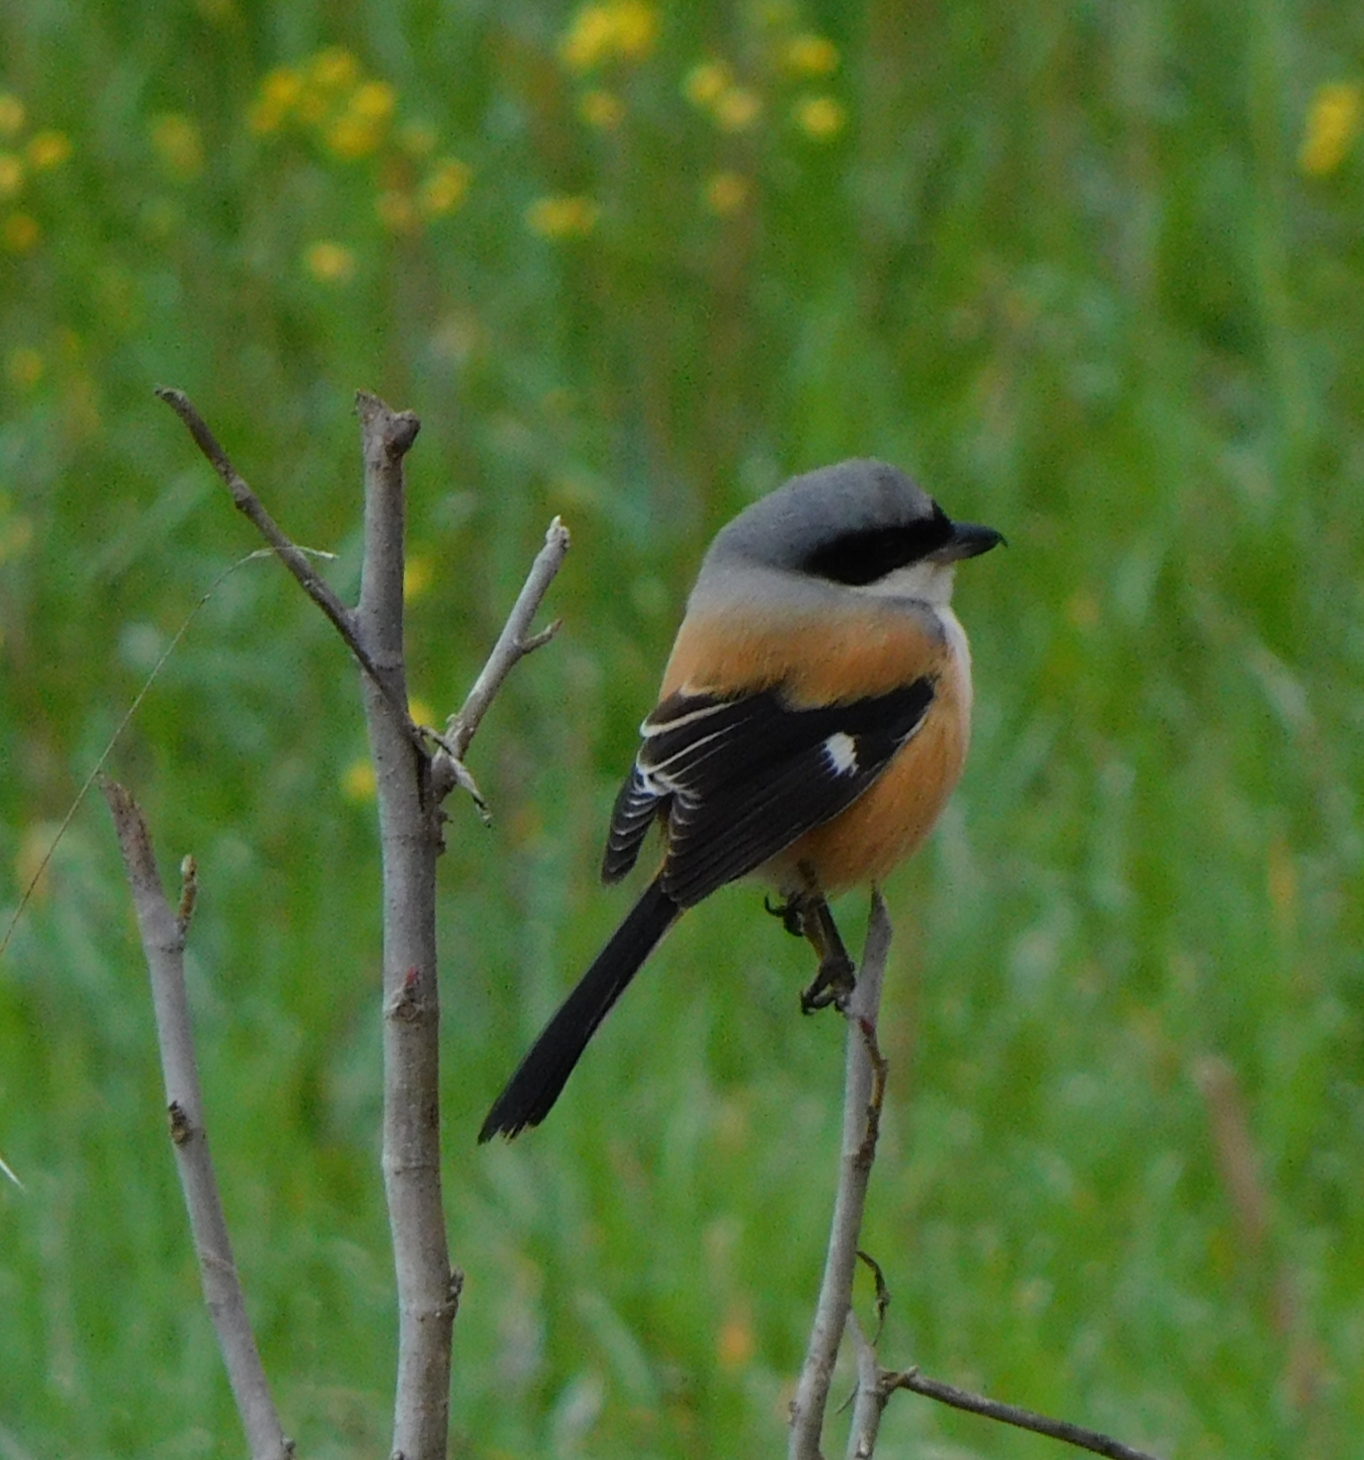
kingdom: Animalia
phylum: Chordata
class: Aves
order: Passeriformes
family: Laniidae
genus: Lanius
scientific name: Lanius schach
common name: Long-tailed shrike
